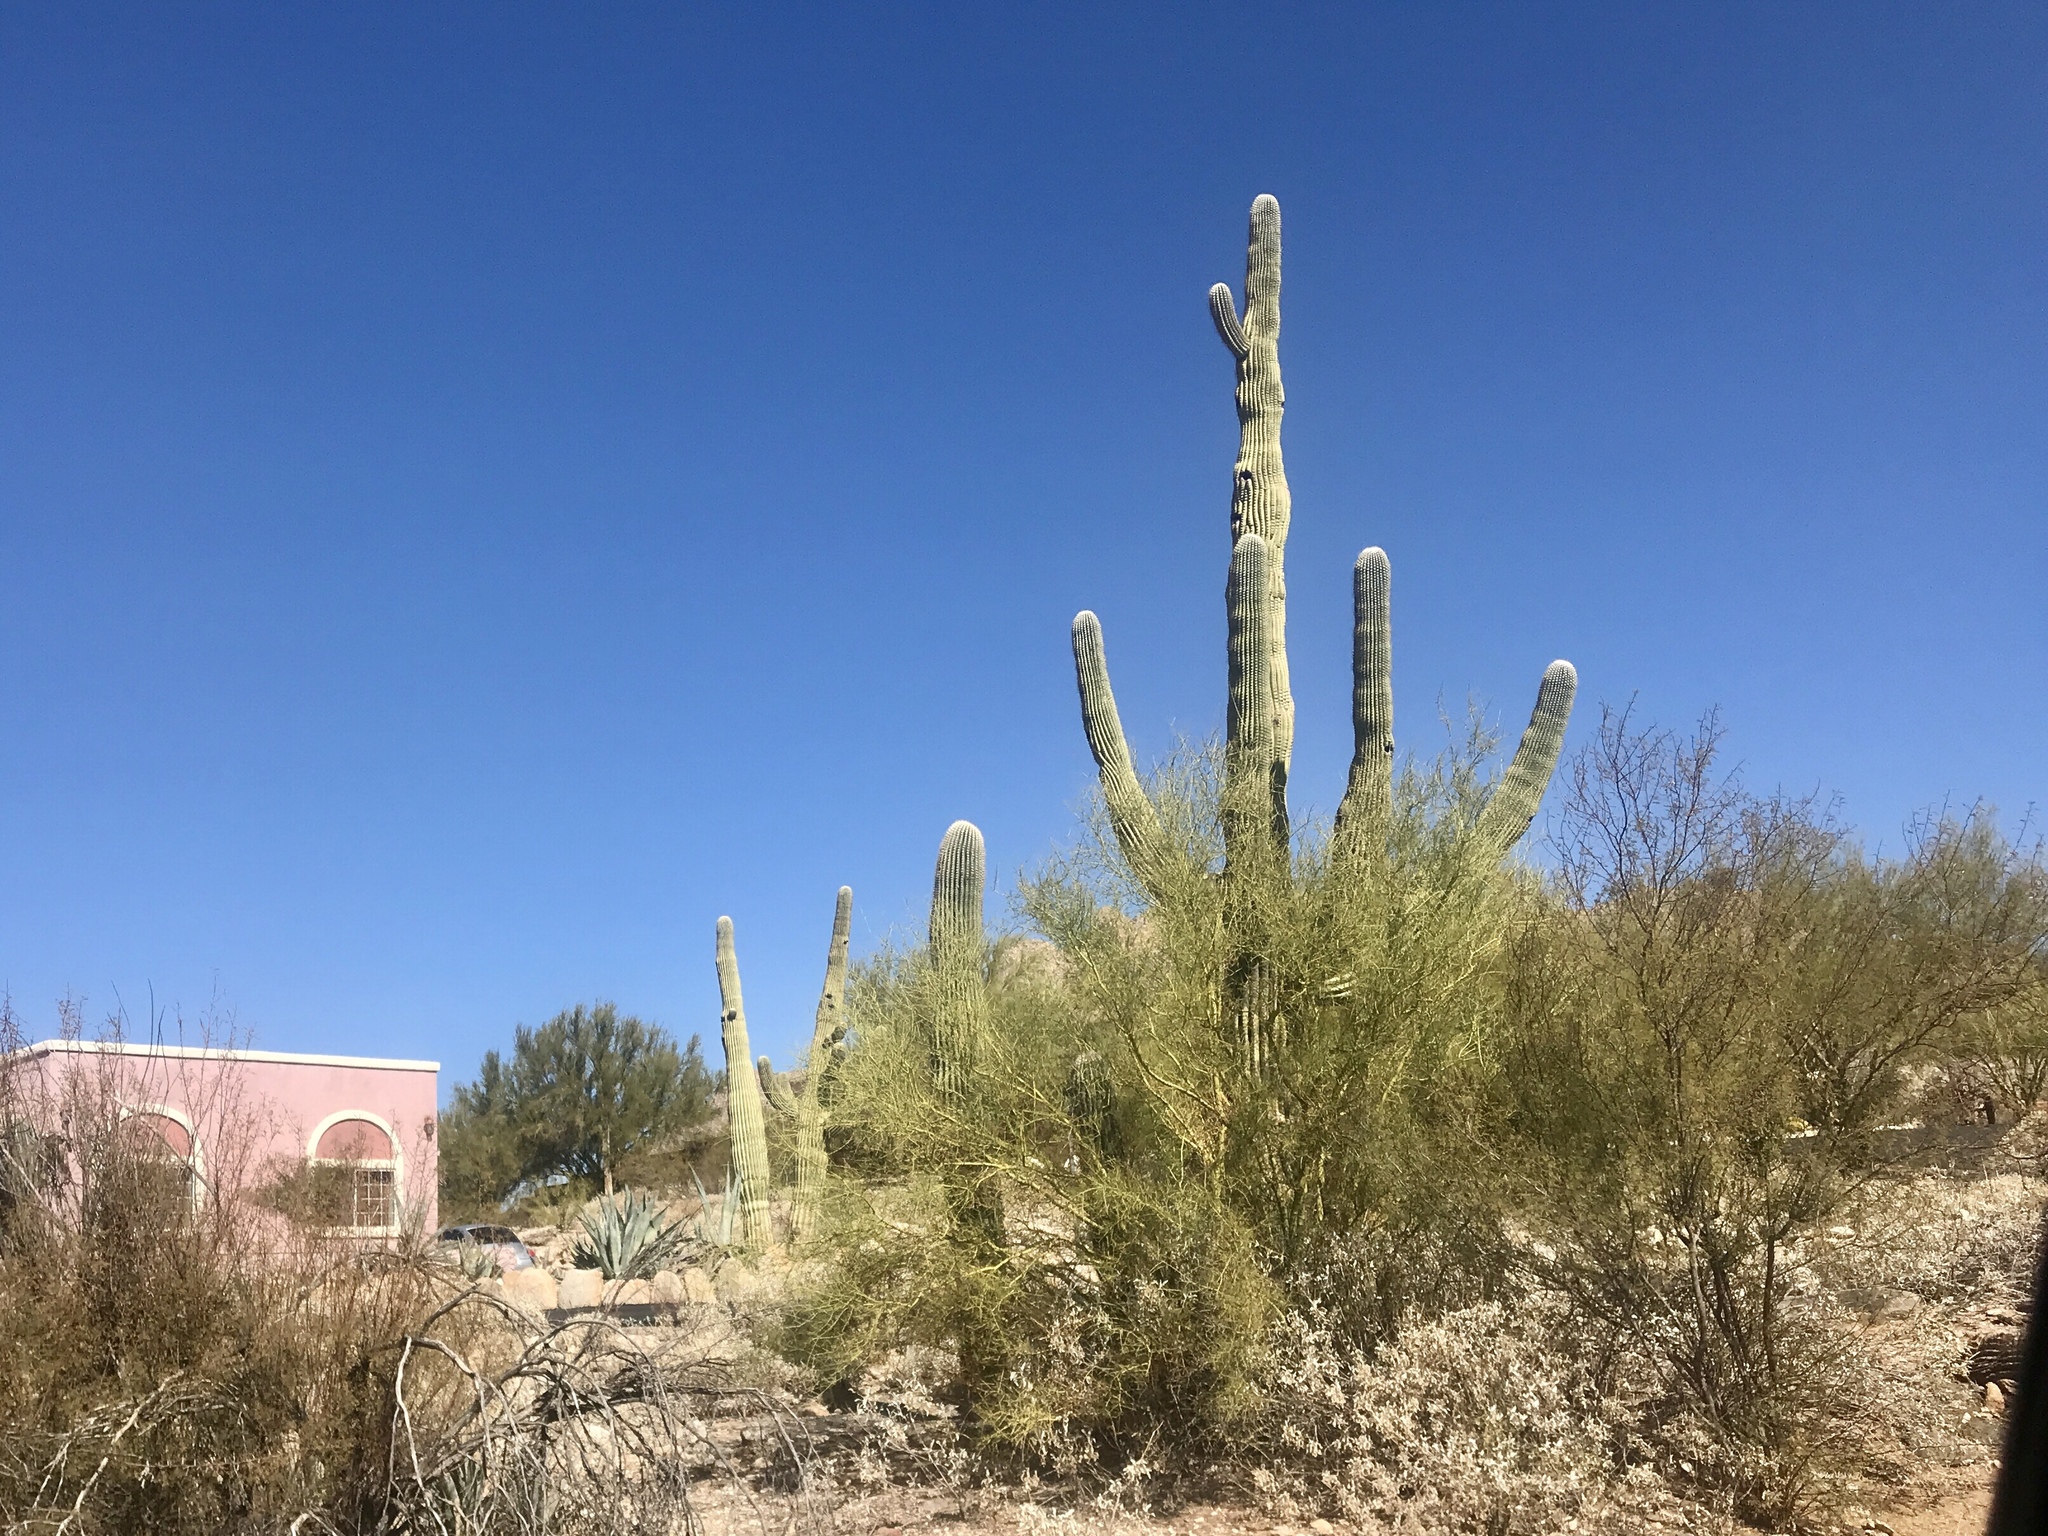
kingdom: Plantae
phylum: Tracheophyta
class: Magnoliopsida
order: Fabales
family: Fabaceae
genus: Parkinsonia
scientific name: Parkinsonia microphylla
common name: Yellow paloverde
